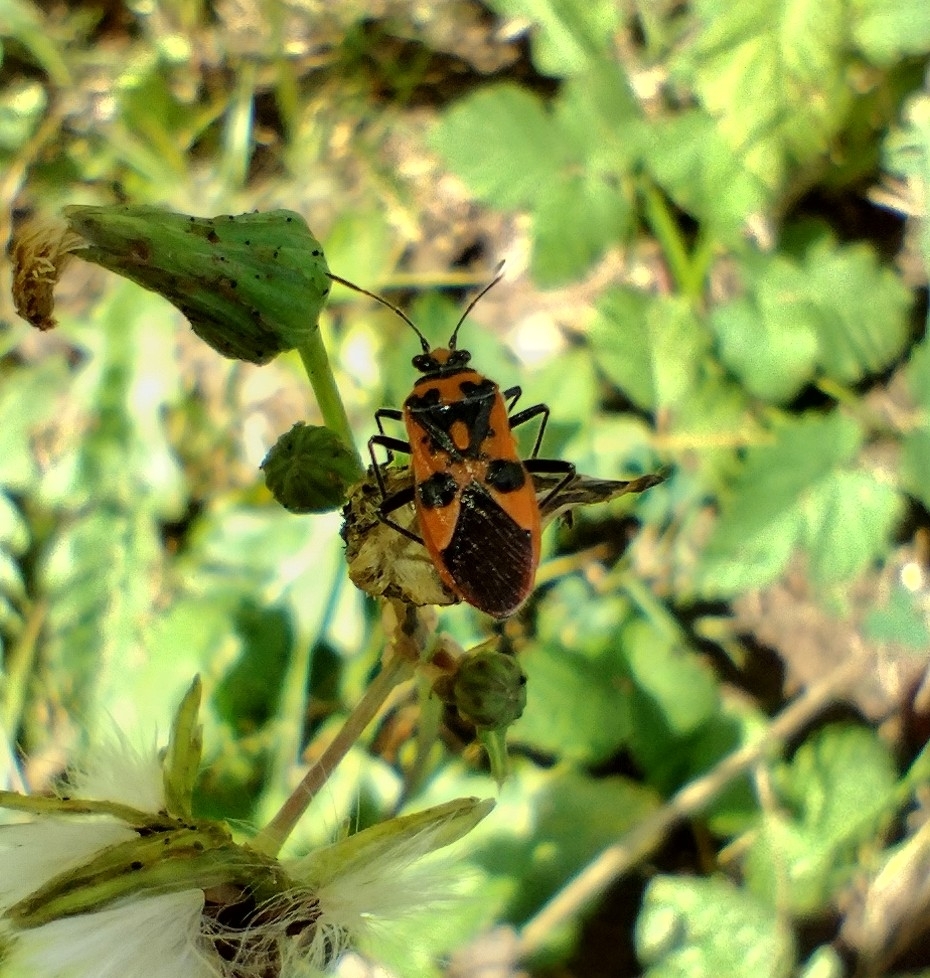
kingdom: Animalia
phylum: Arthropoda
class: Insecta
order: Hemiptera
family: Rhopalidae
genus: Corizus
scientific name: Corizus hyoscyami
